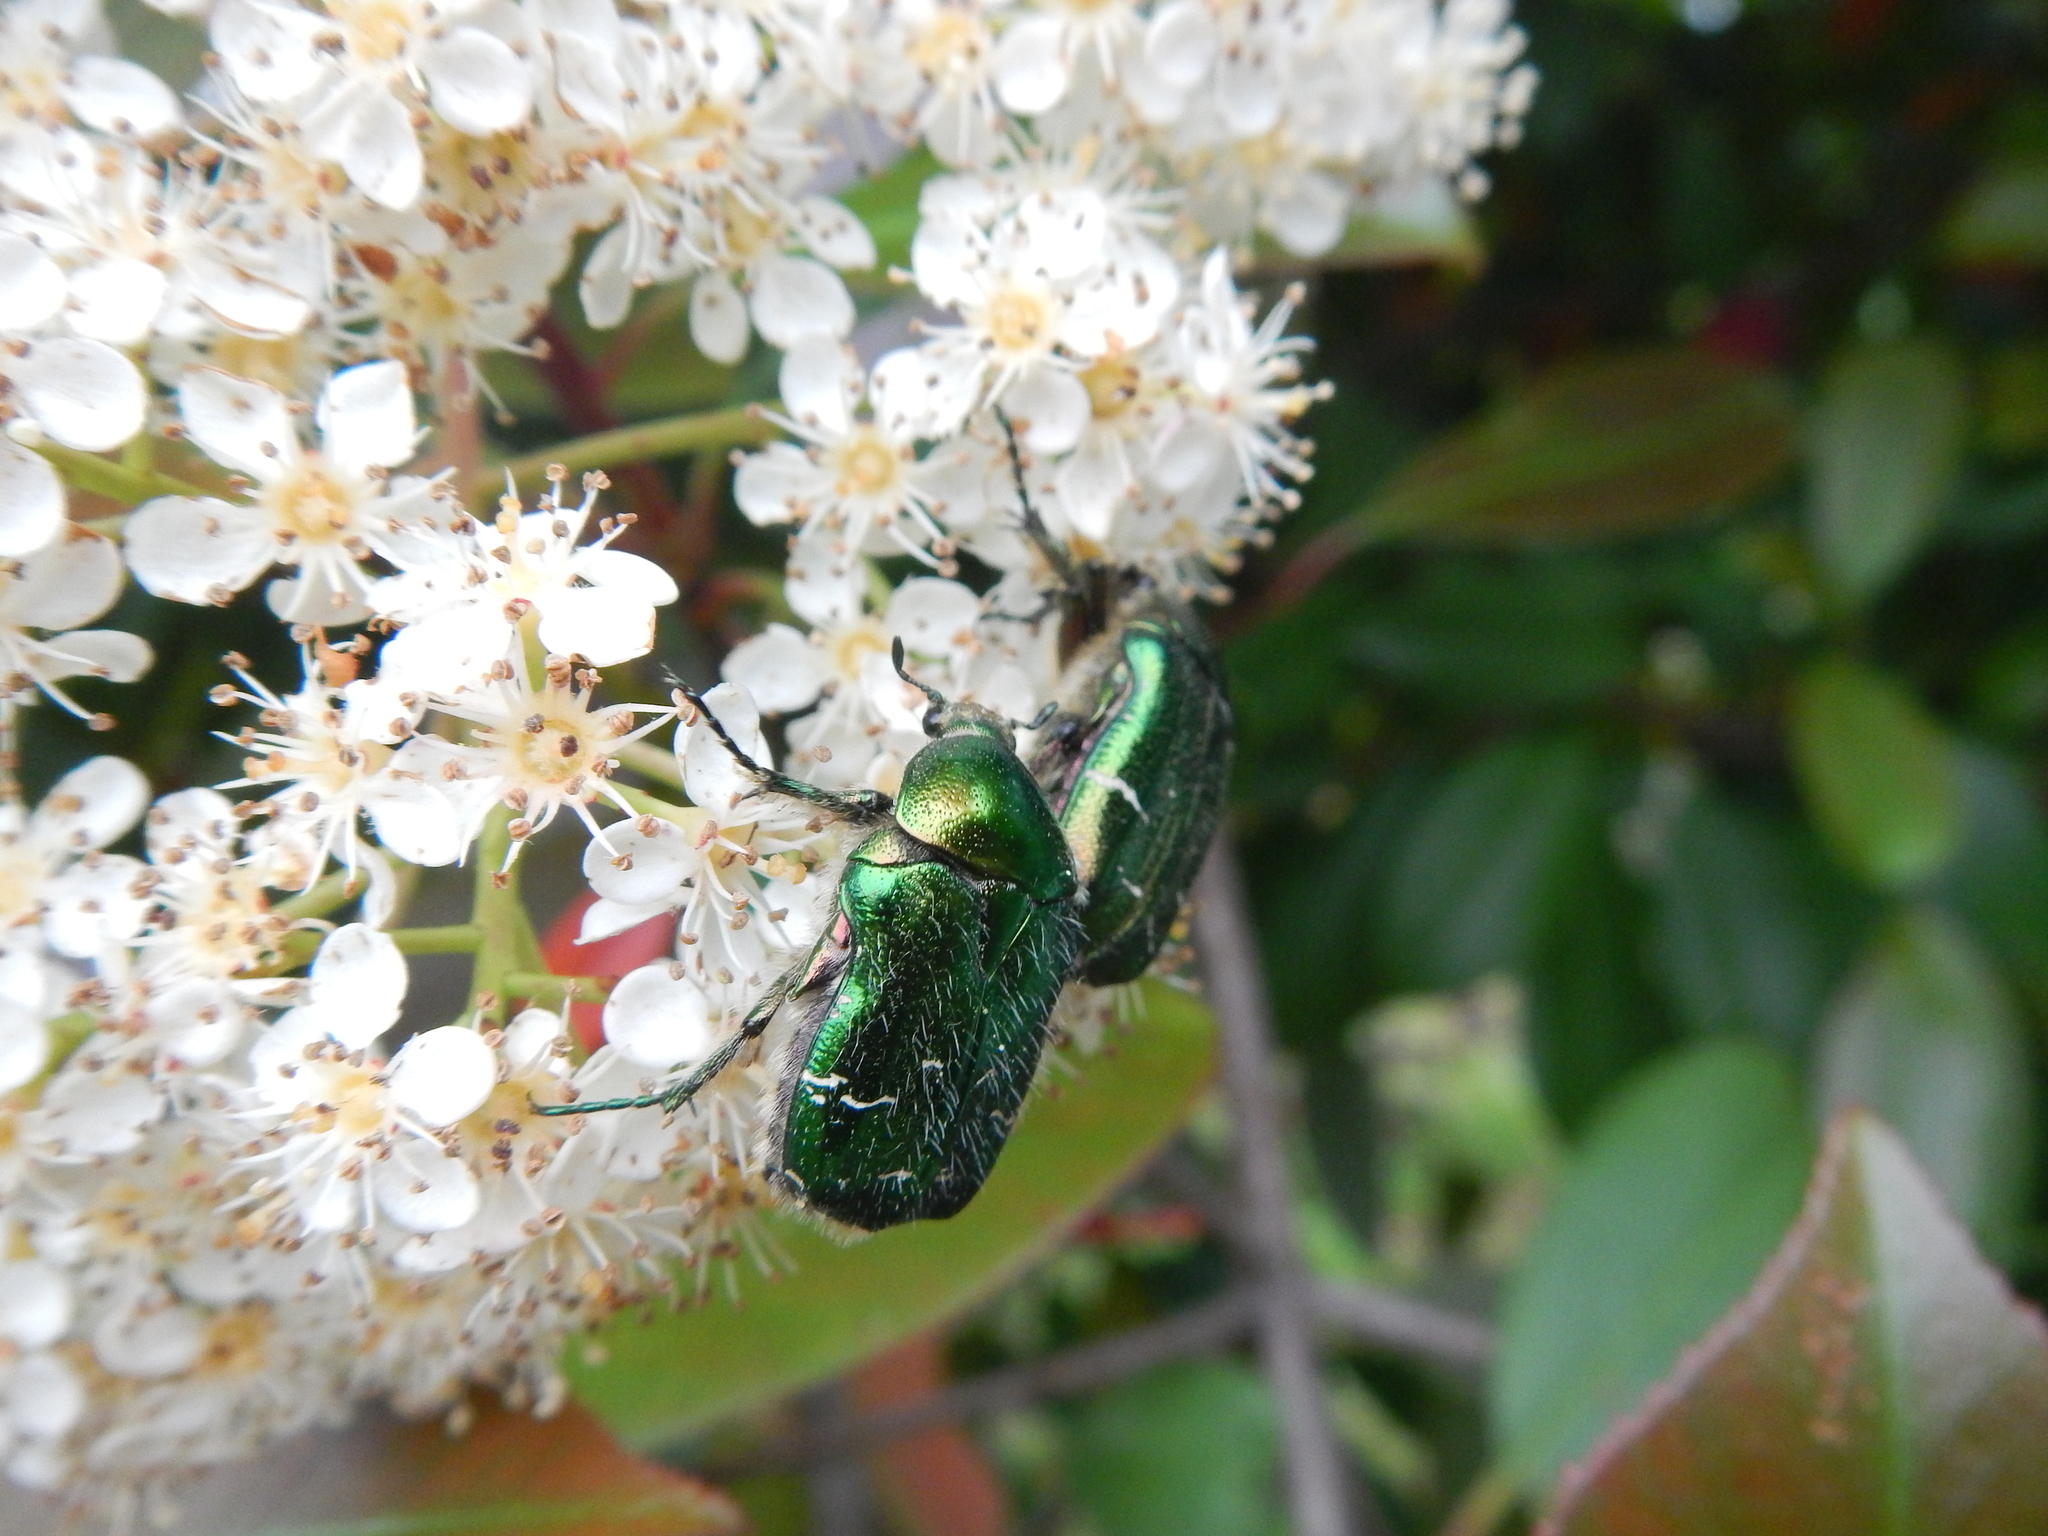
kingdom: Animalia
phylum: Arthropoda
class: Insecta
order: Coleoptera
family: Scarabaeidae
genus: Cetonia
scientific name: Cetonia aurata
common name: Rose chafer
